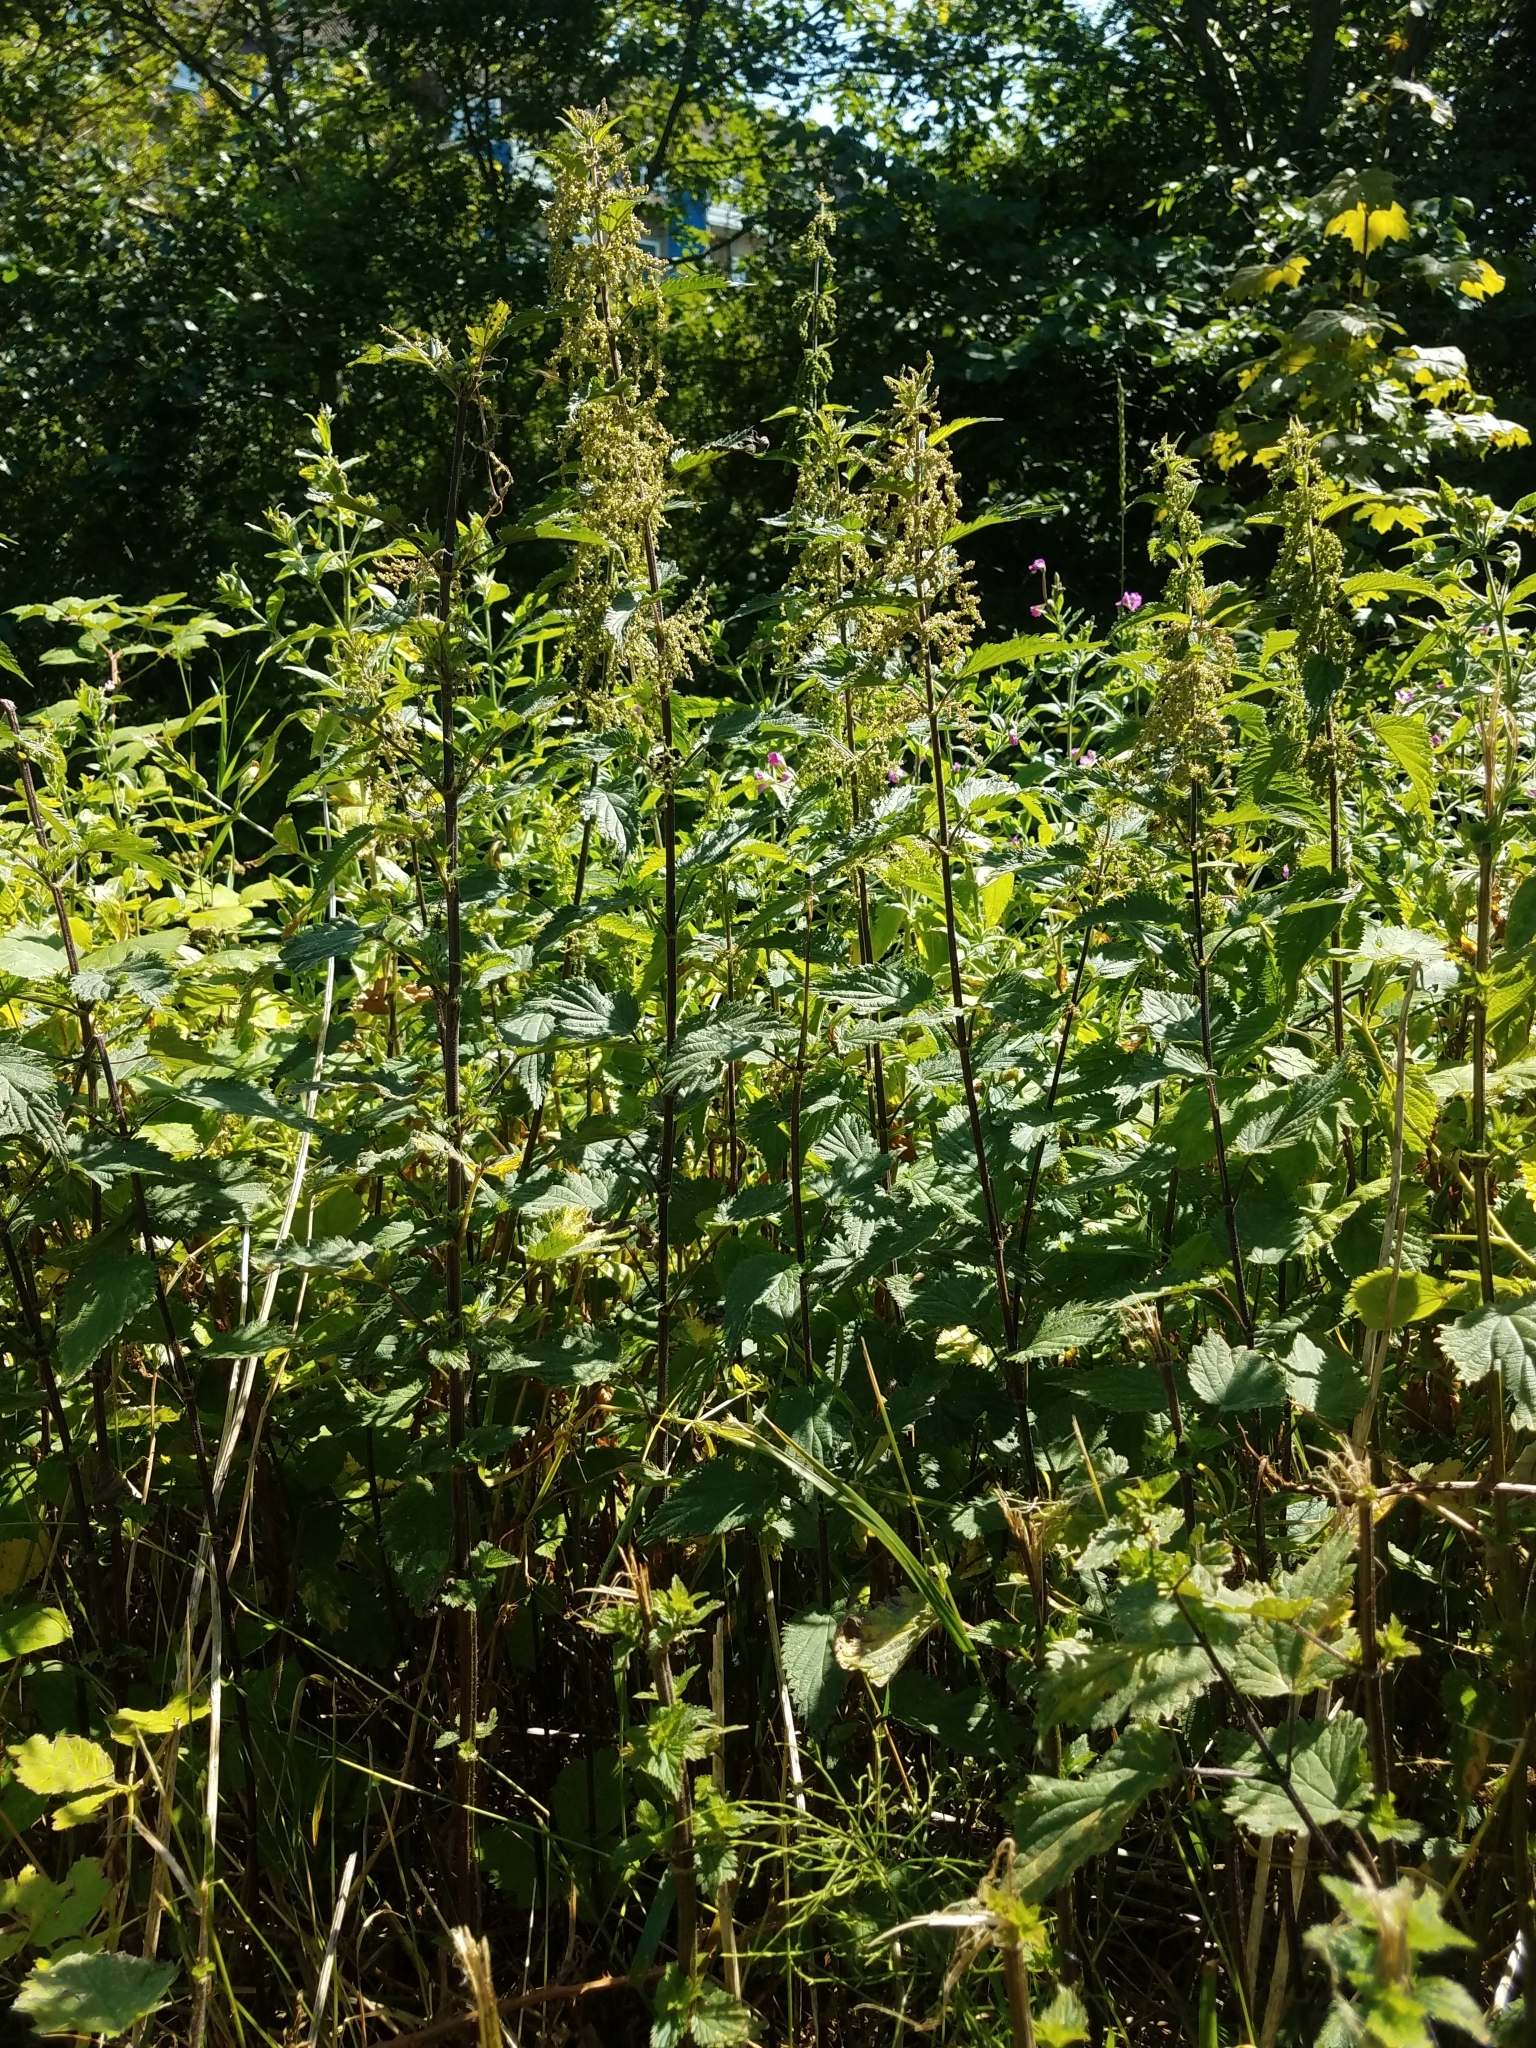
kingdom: Plantae
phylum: Tracheophyta
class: Magnoliopsida
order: Rosales
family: Urticaceae
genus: Urtica
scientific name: Urtica dioica
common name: Common nettle
